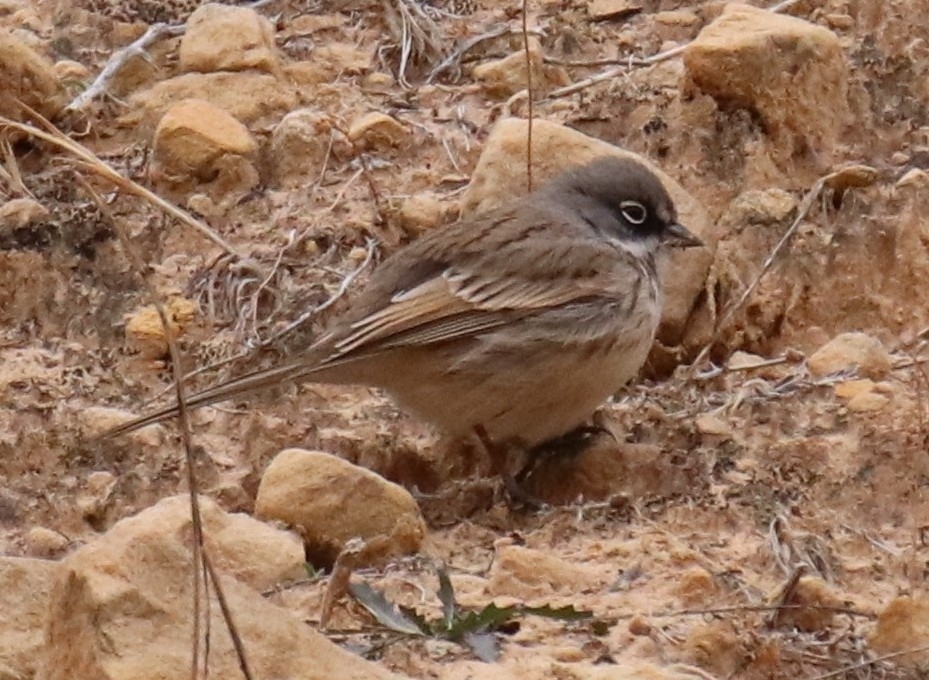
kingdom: Animalia
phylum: Chordata
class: Aves
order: Passeriformes
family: Passerellidae
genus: Artemisiospiza
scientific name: Artemisiospiza nevadensis
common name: Sagebrush sparrow
